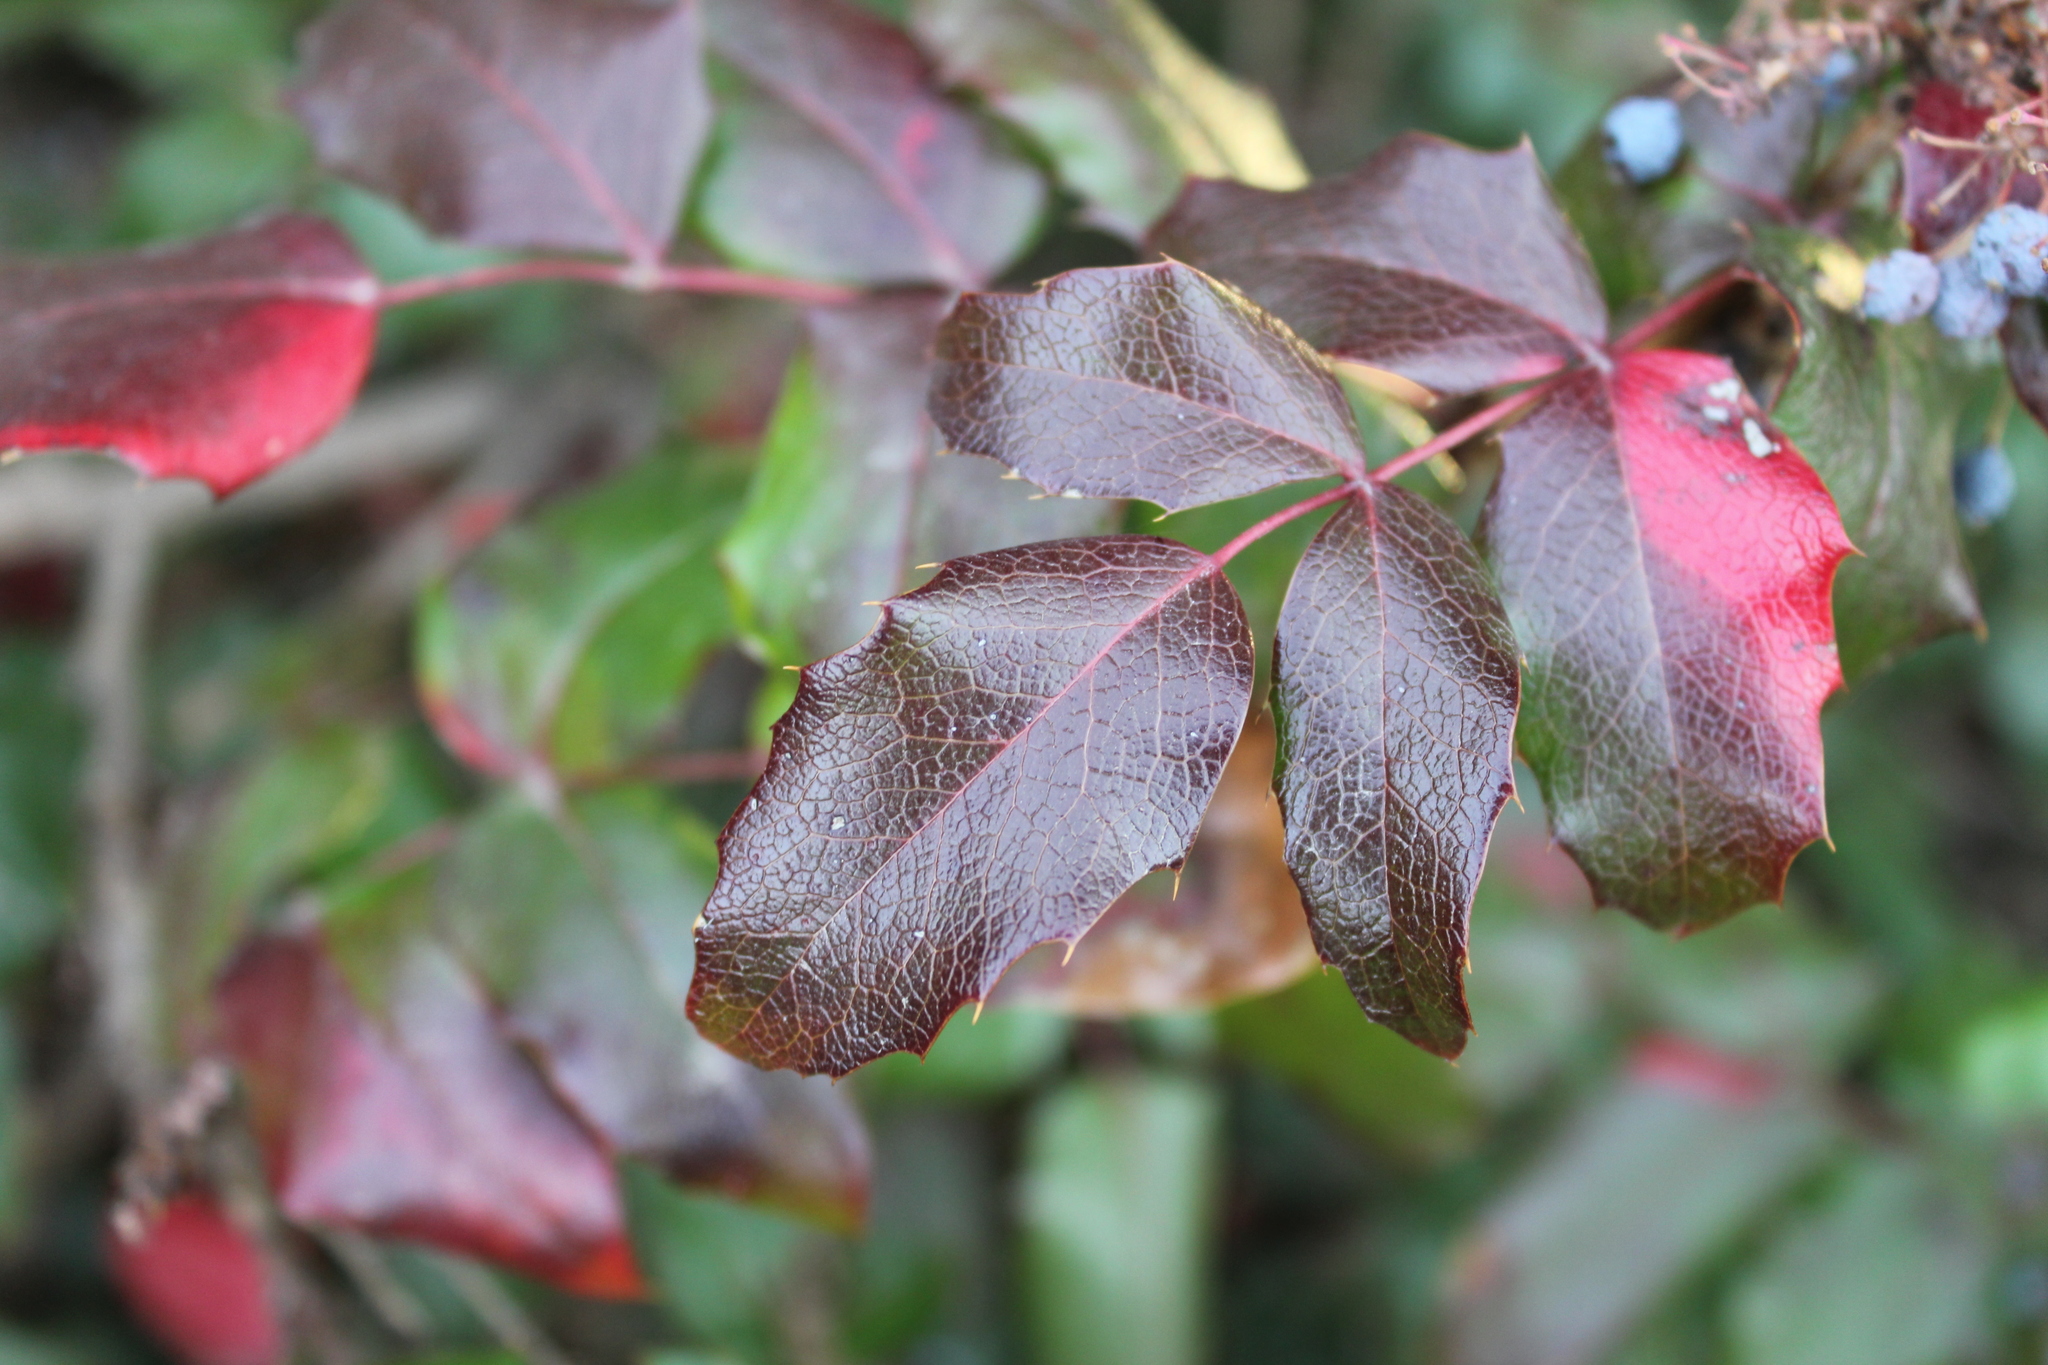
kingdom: Plantae
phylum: Tracheophyta
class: Magnoliopsida
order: Ranunculales
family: Berberidaceae
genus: Mahonia
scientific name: Mahonia aquifolium
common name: Oregon-grape
